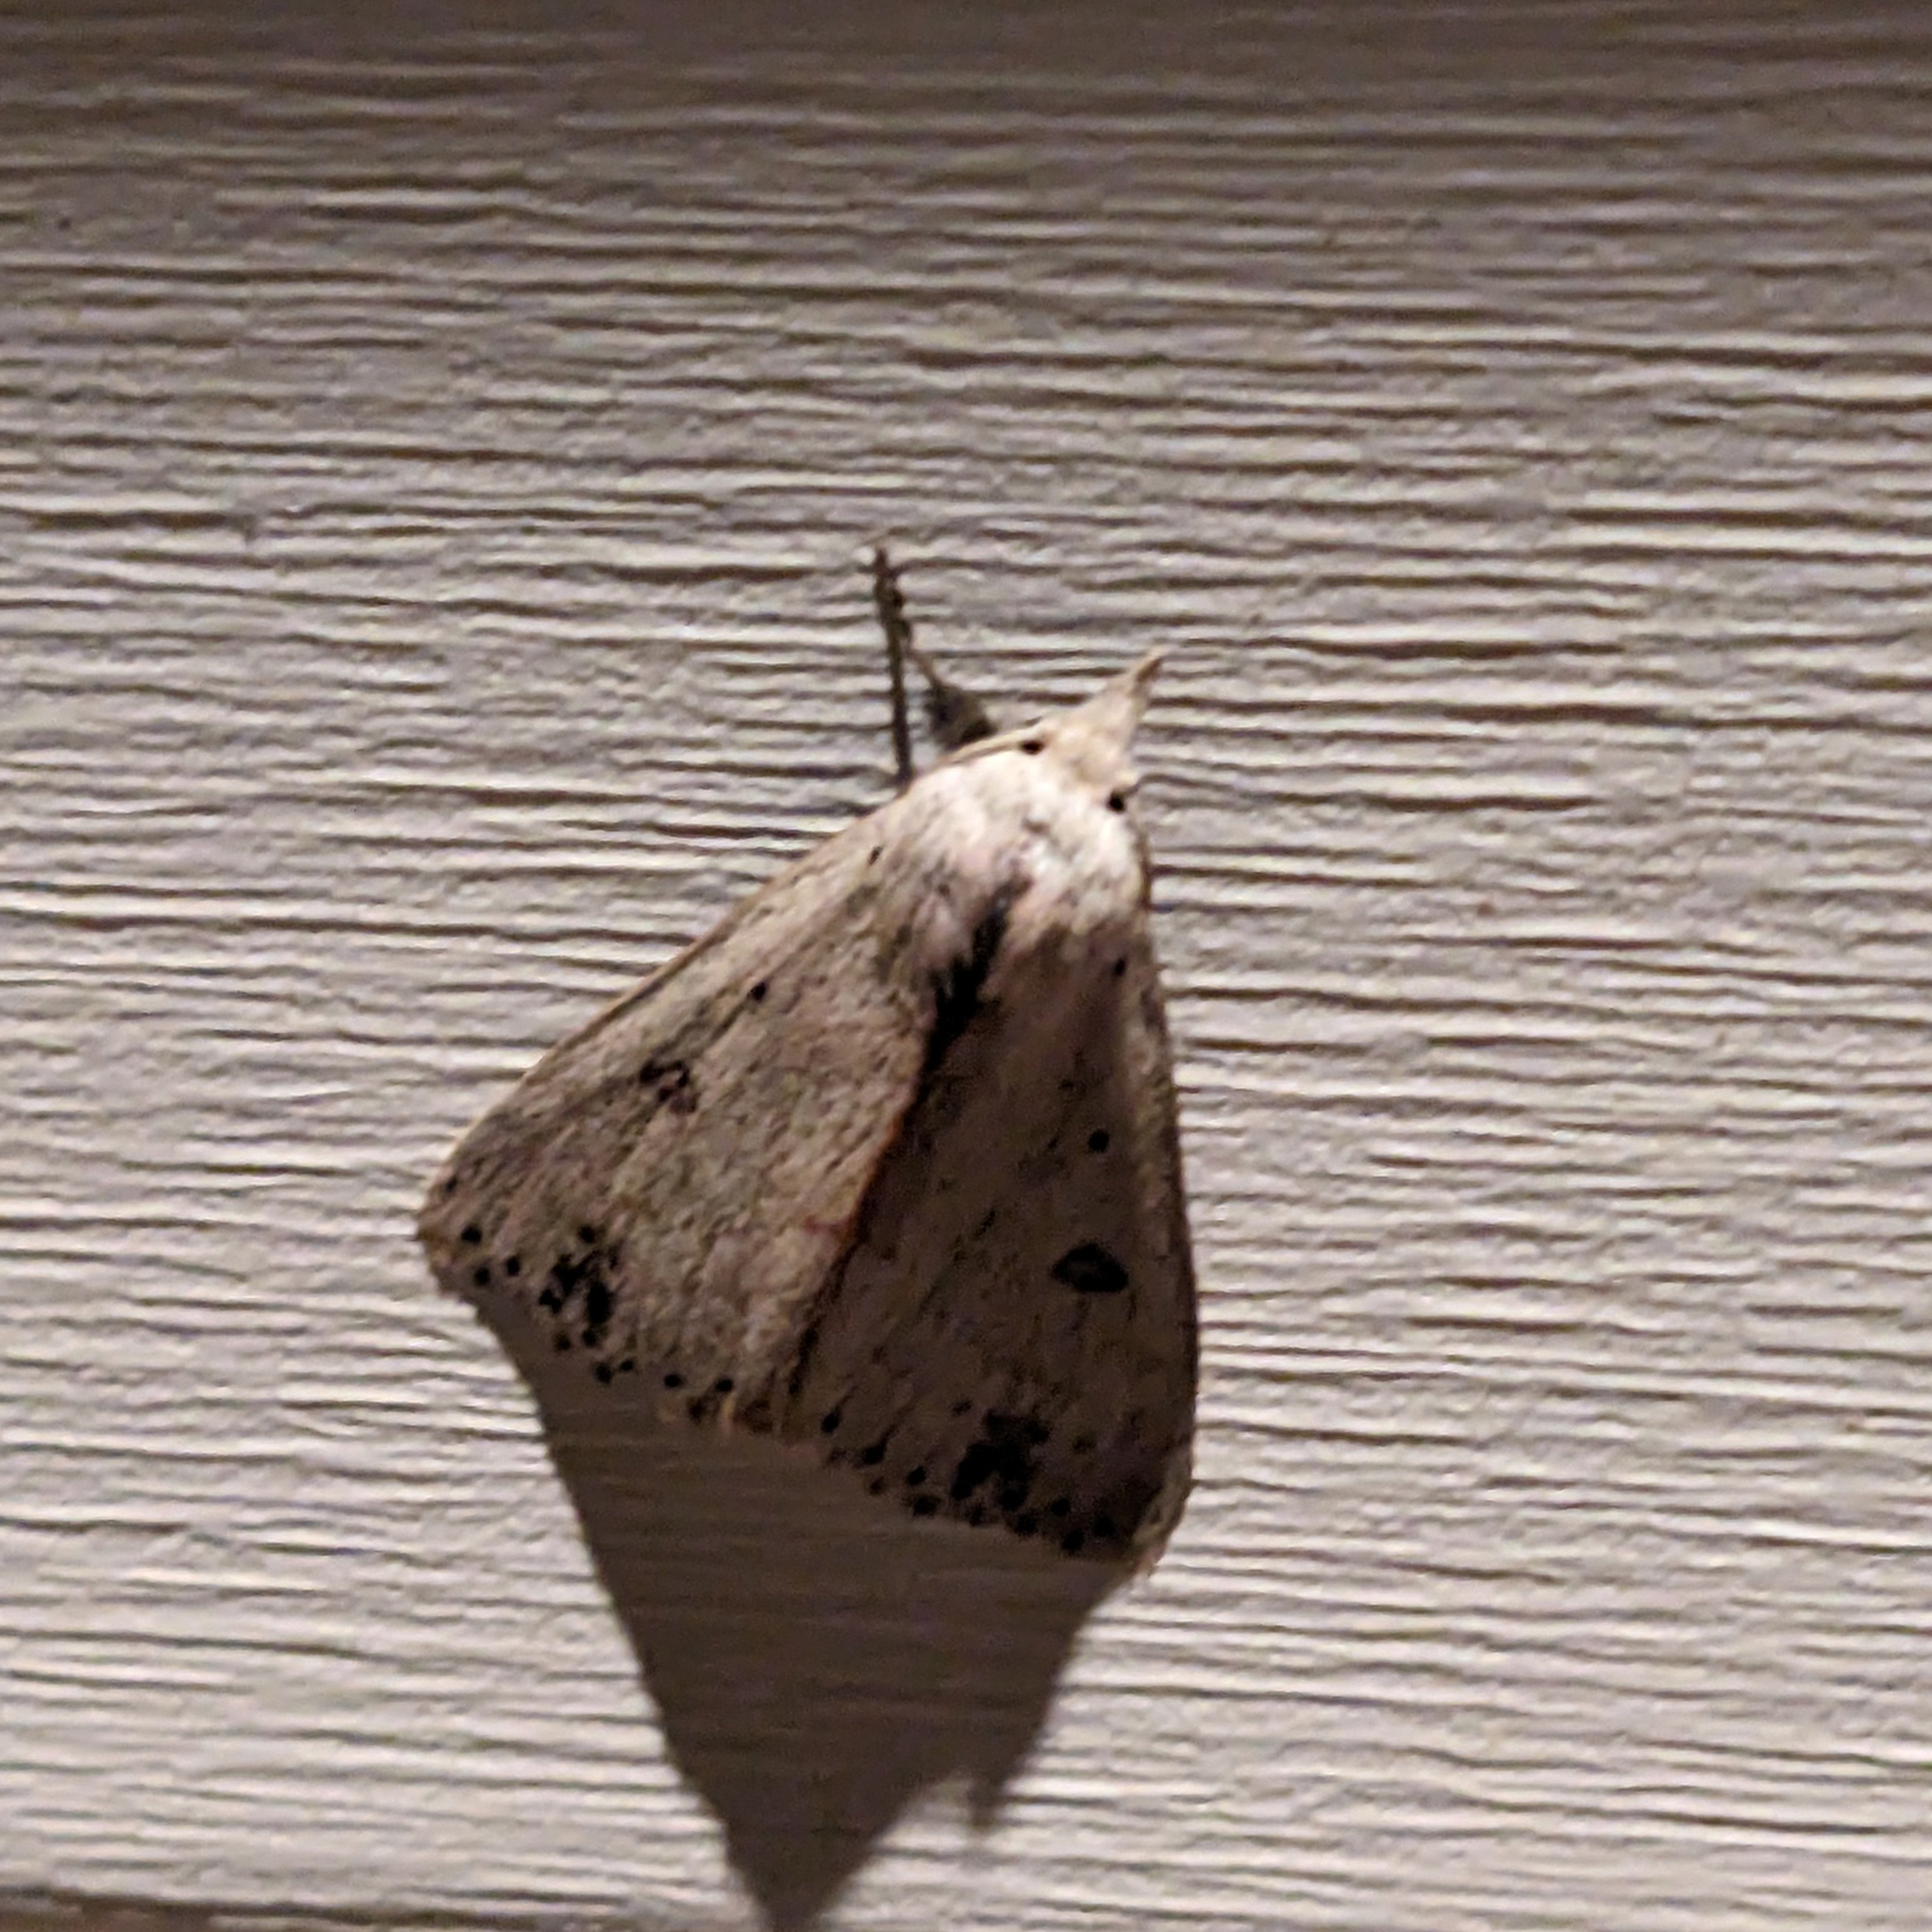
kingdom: Animalia
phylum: Arthropoda
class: Insecta
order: Lepidoptera
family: Erebidae
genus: Scolecocampa
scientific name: Scolecocampa liburna
